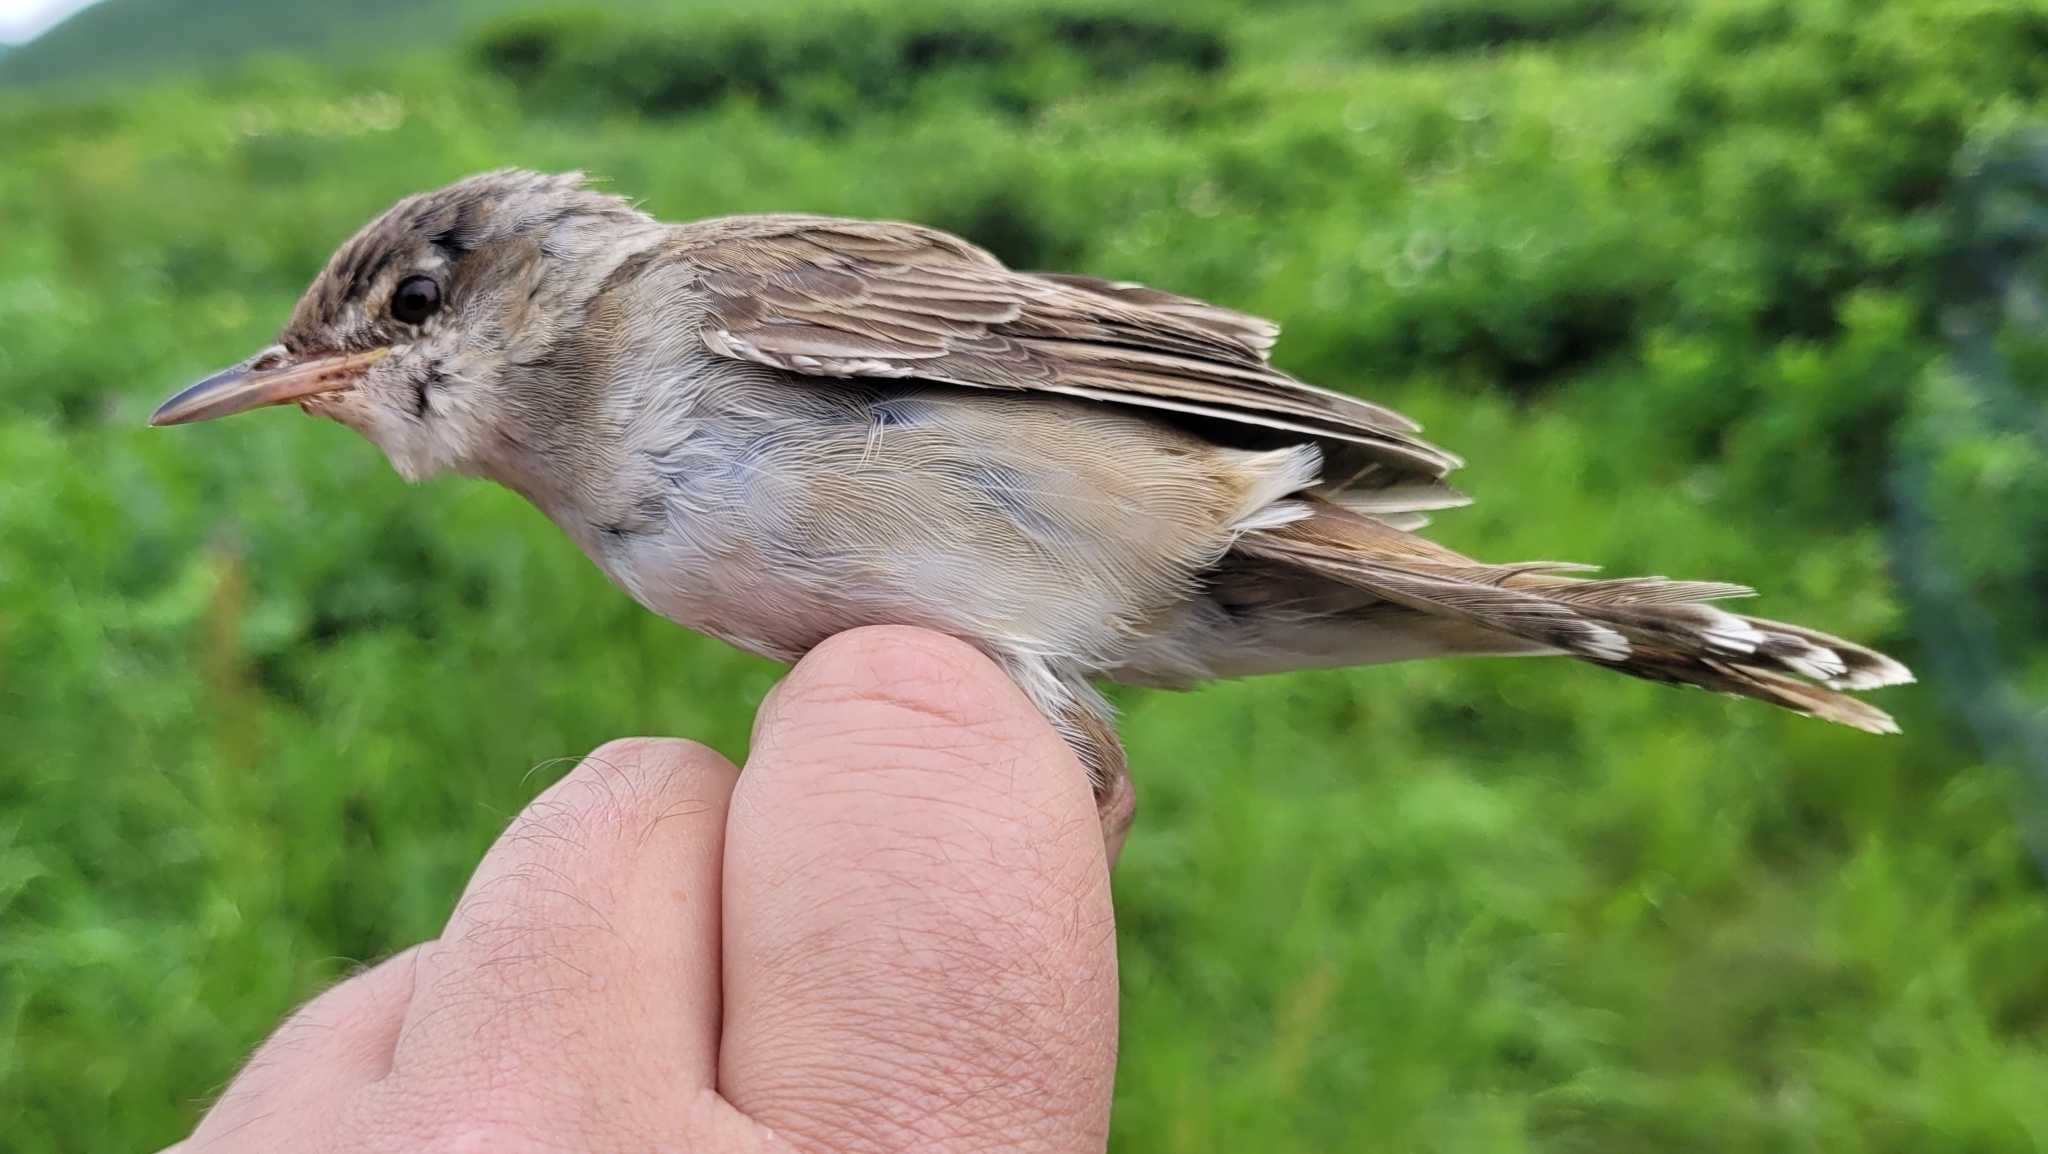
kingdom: Animalia
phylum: Chordata
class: Aves
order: Passeriformes
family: Locustellidae
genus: Locustella
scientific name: Locustella ochotensis
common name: Middendorff's grasshopper-warbler
